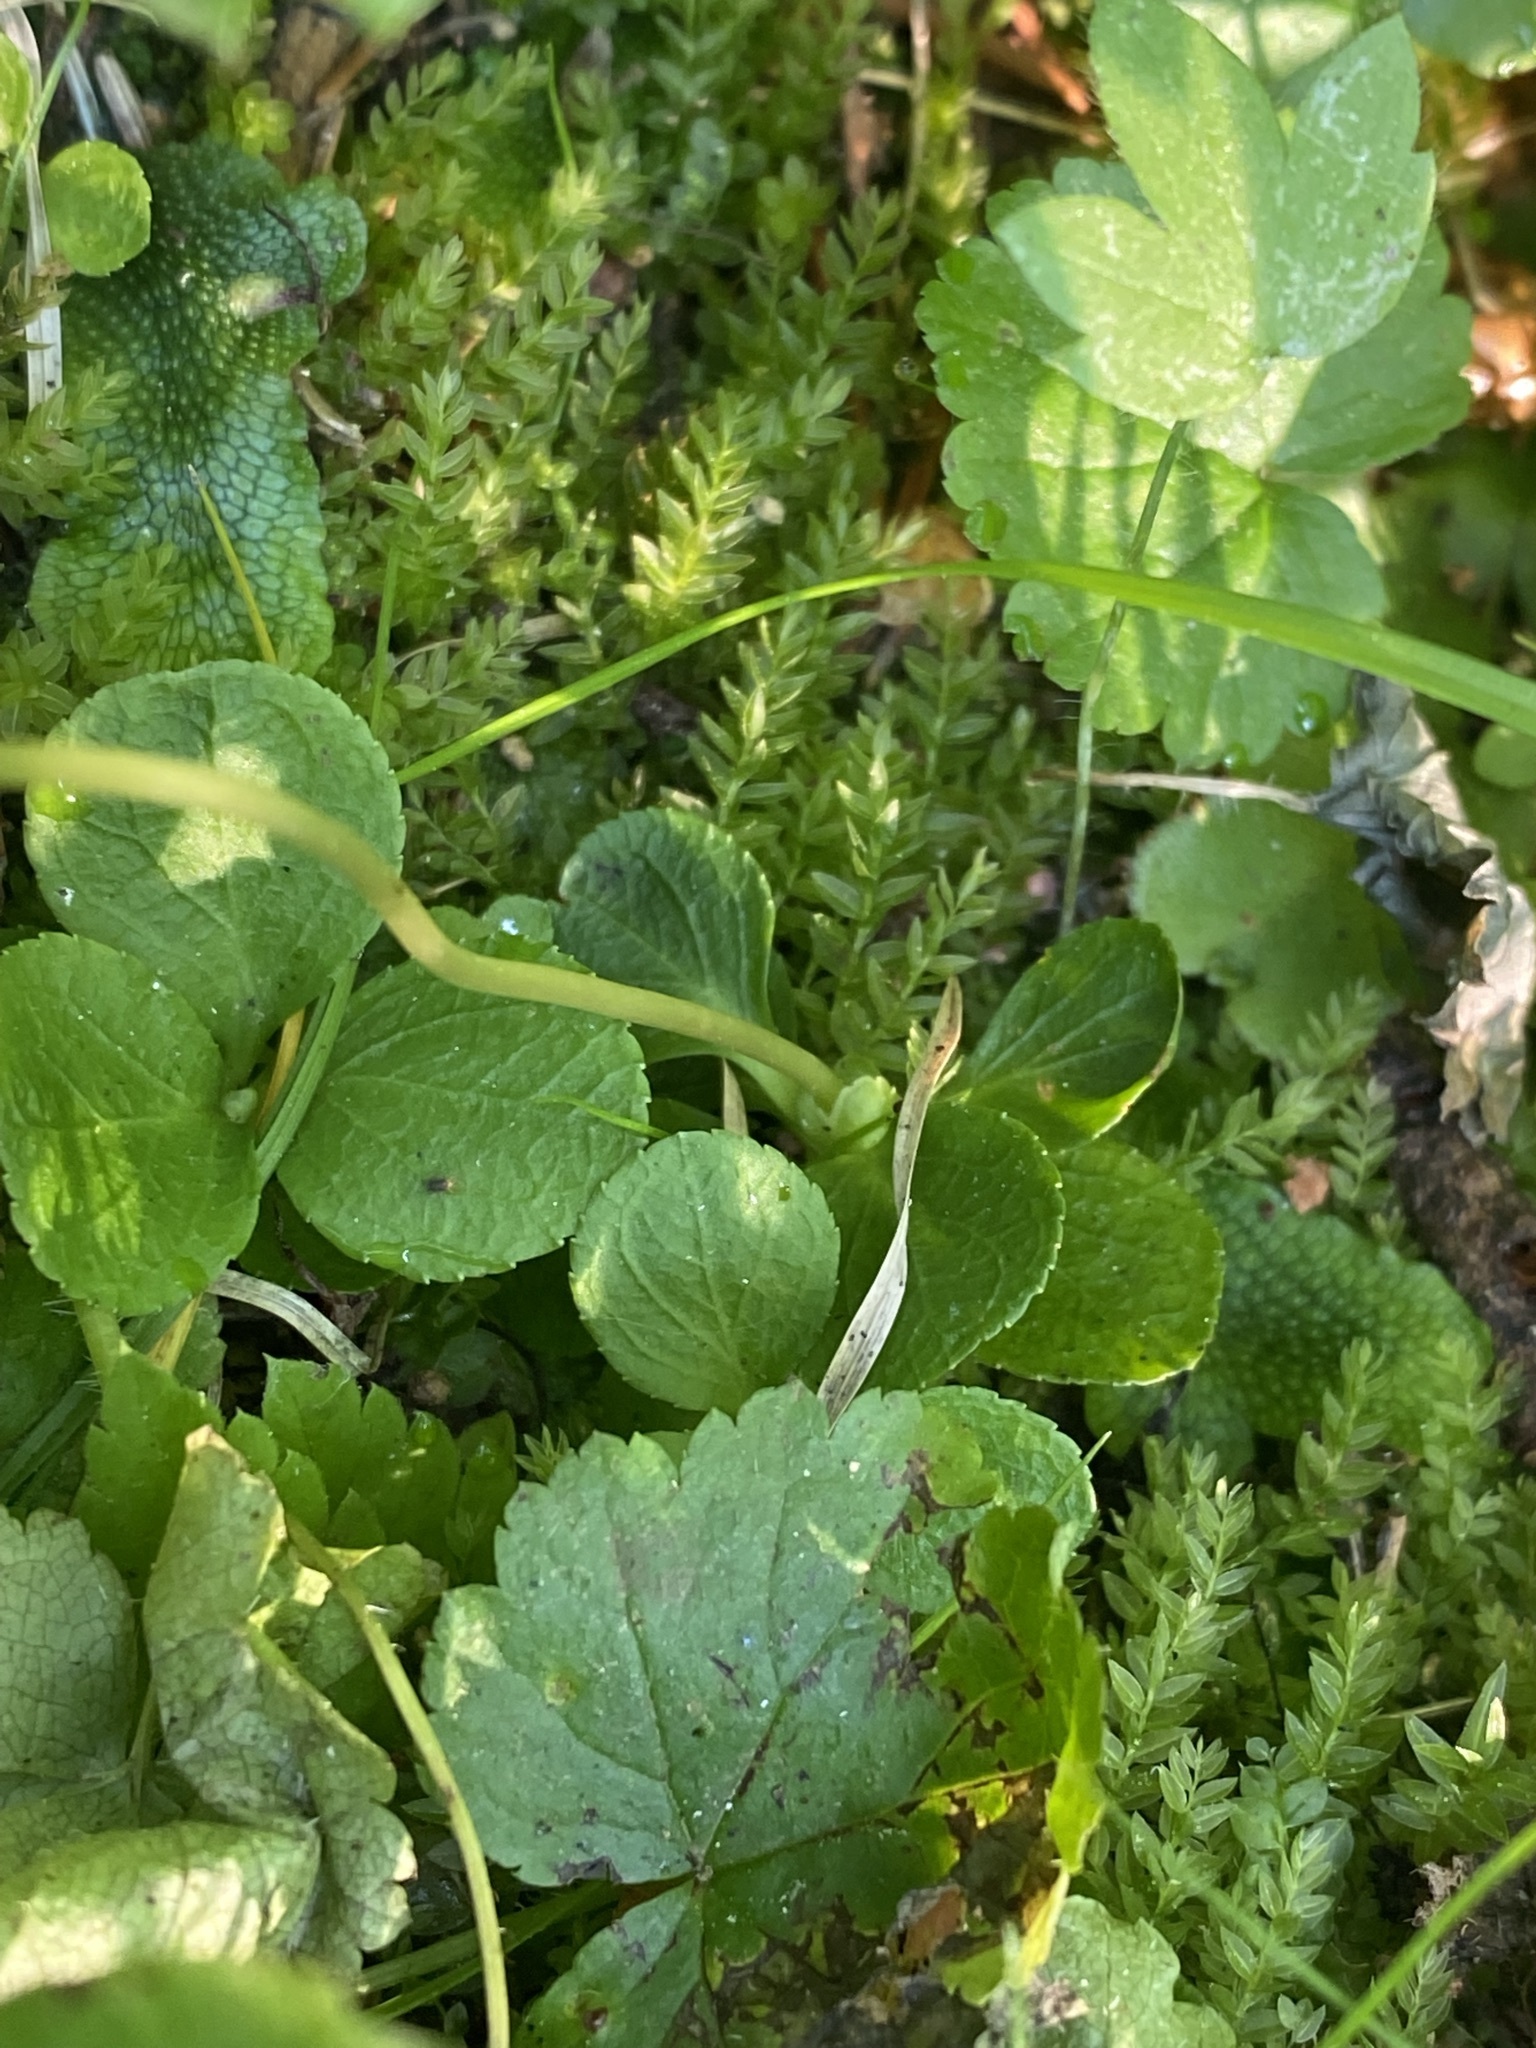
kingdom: Plantae
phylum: Tracheophyta
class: Magnoliopsida
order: Ericales
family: Ericaceae
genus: Moneses
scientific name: Moneses uniflora
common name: One-flowered wintergreen
